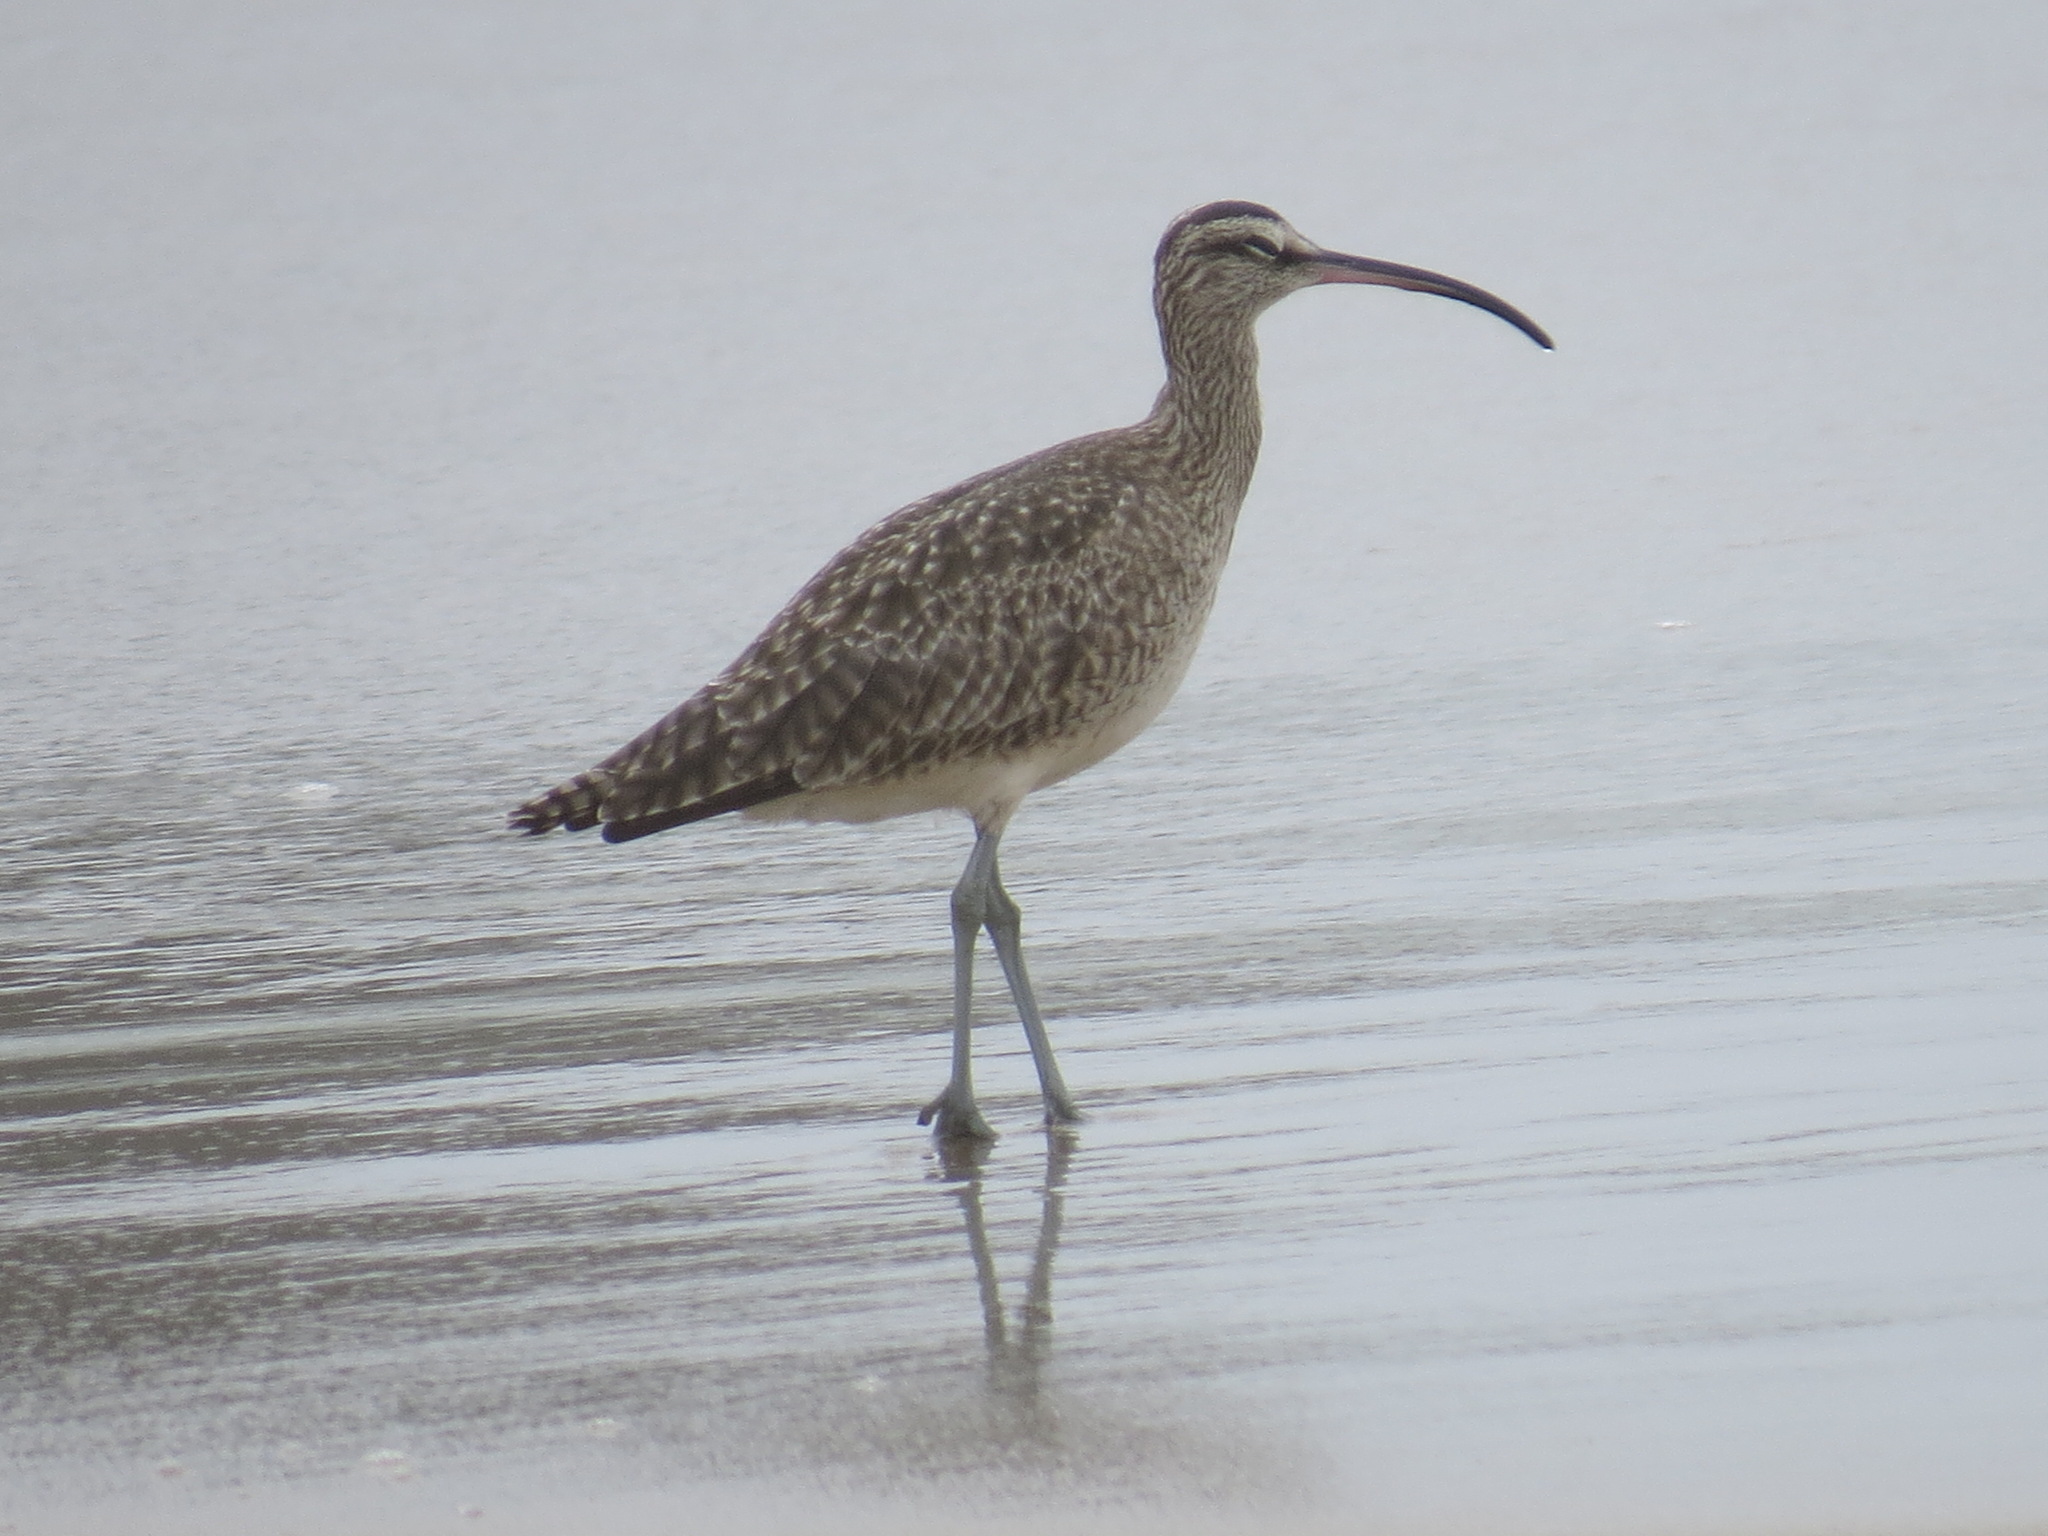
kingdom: Animalia
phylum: Chordata
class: Aves
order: Charadriiformes
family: Scolopacidae
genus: Numenius
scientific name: Numenius phaeopus
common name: Whimbrel
